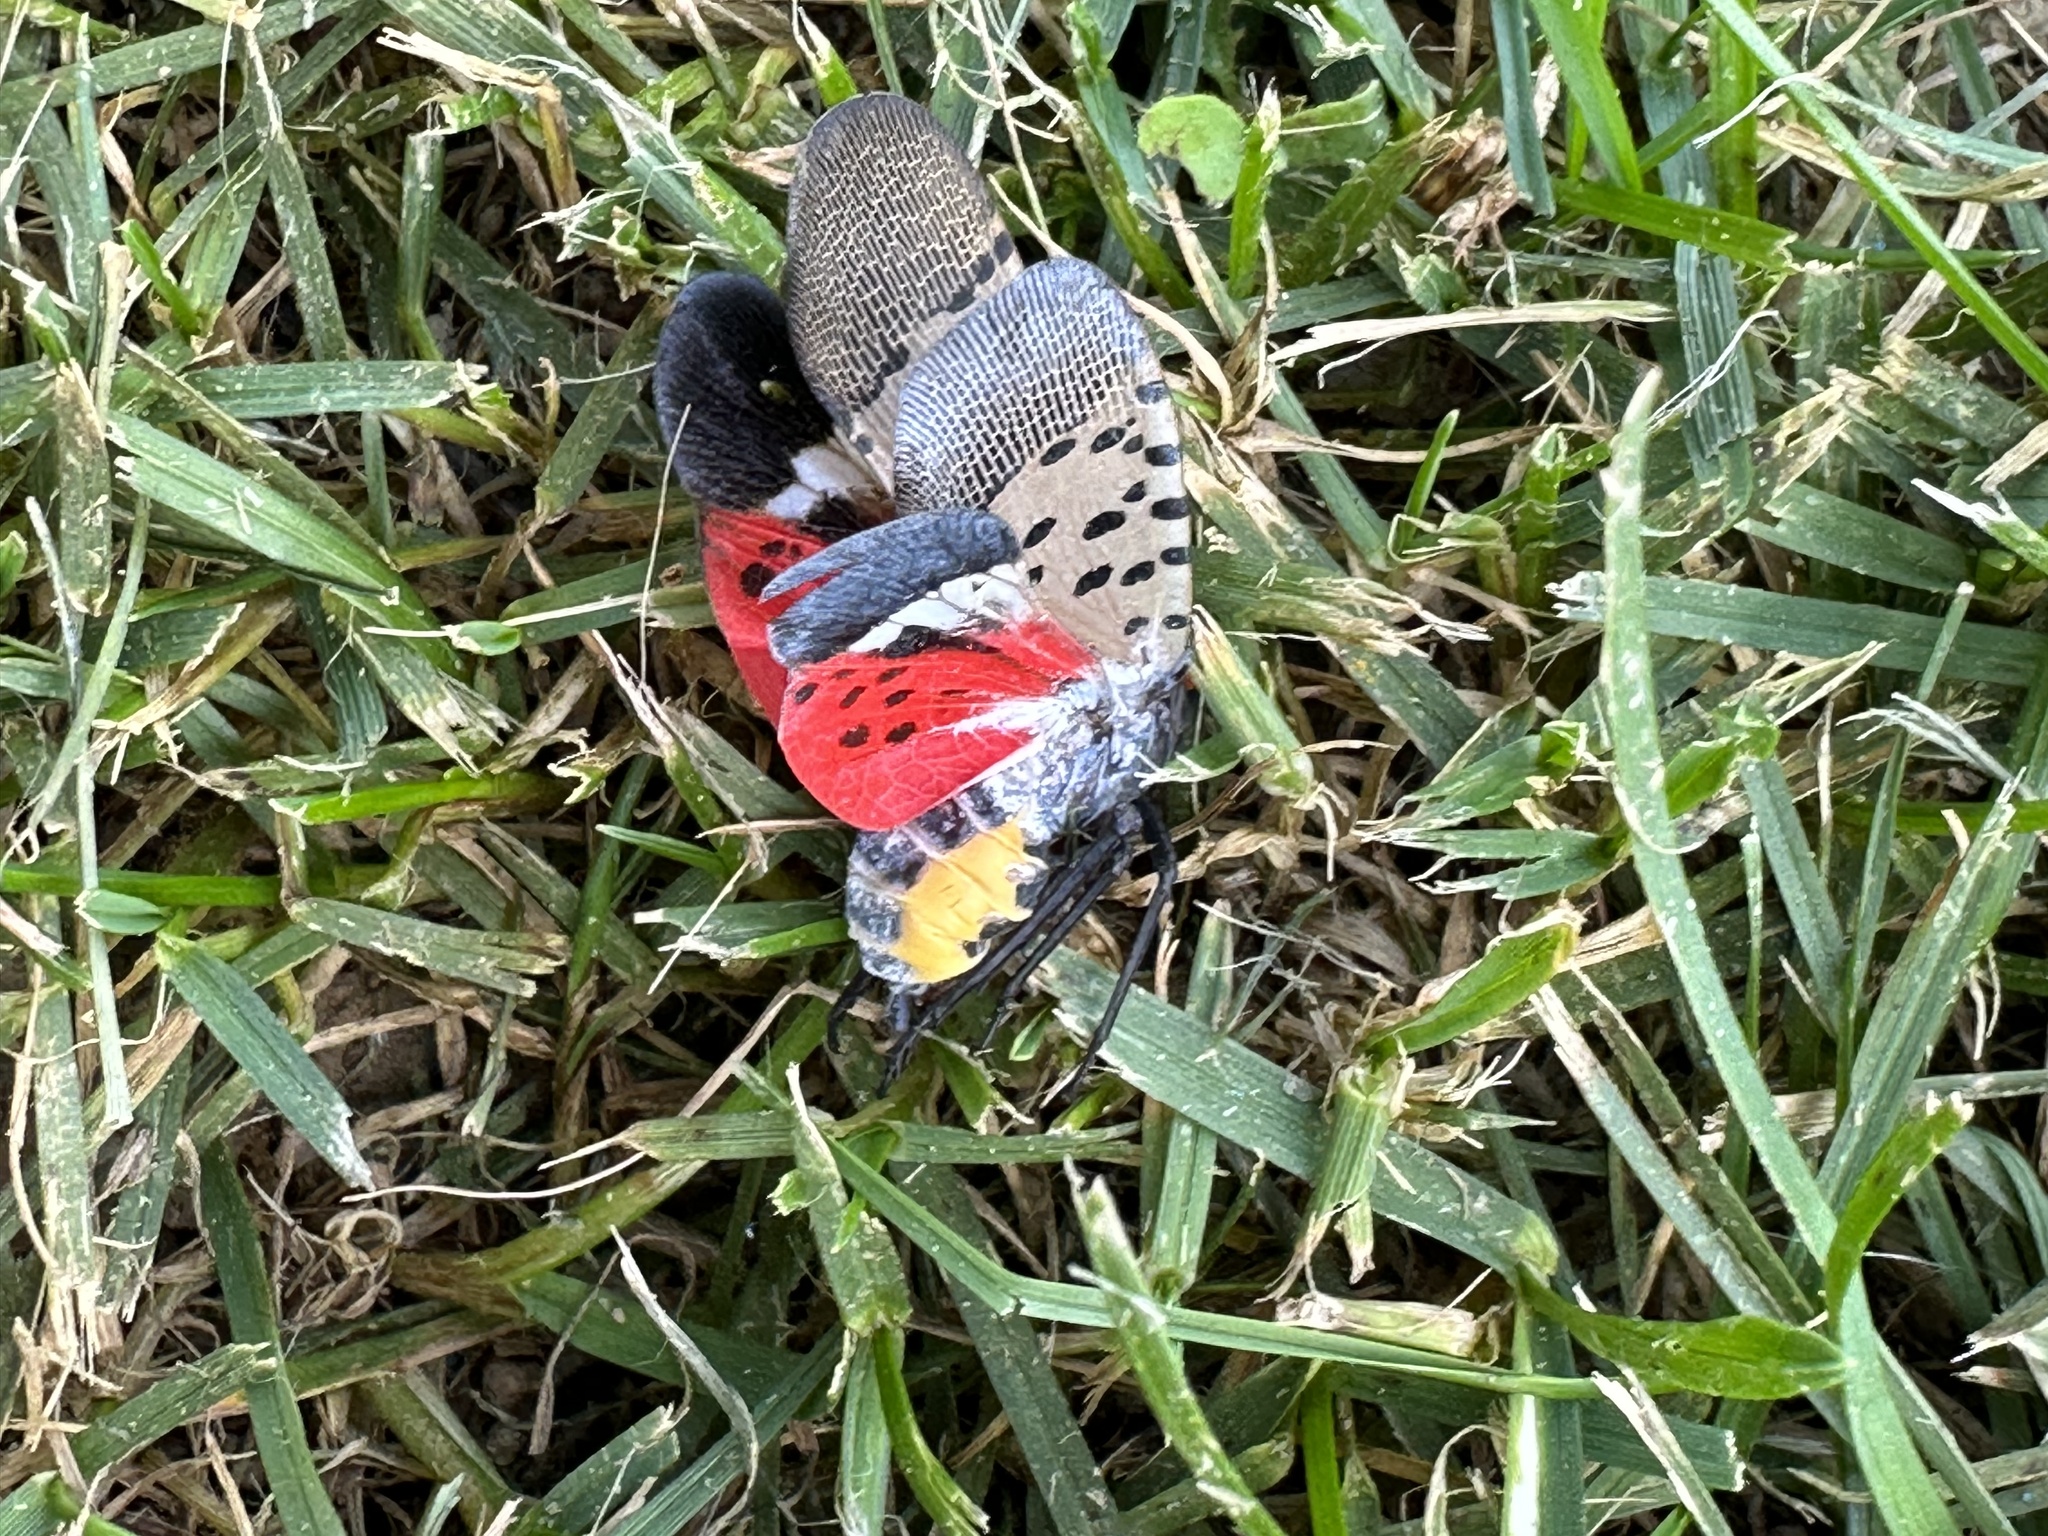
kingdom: Animalia
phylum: Arthropoda
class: Insecta
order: Hemiptera
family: Fulgoridae
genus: Lycorma
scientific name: Lycorma delicatula
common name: Spotted lanternfly
